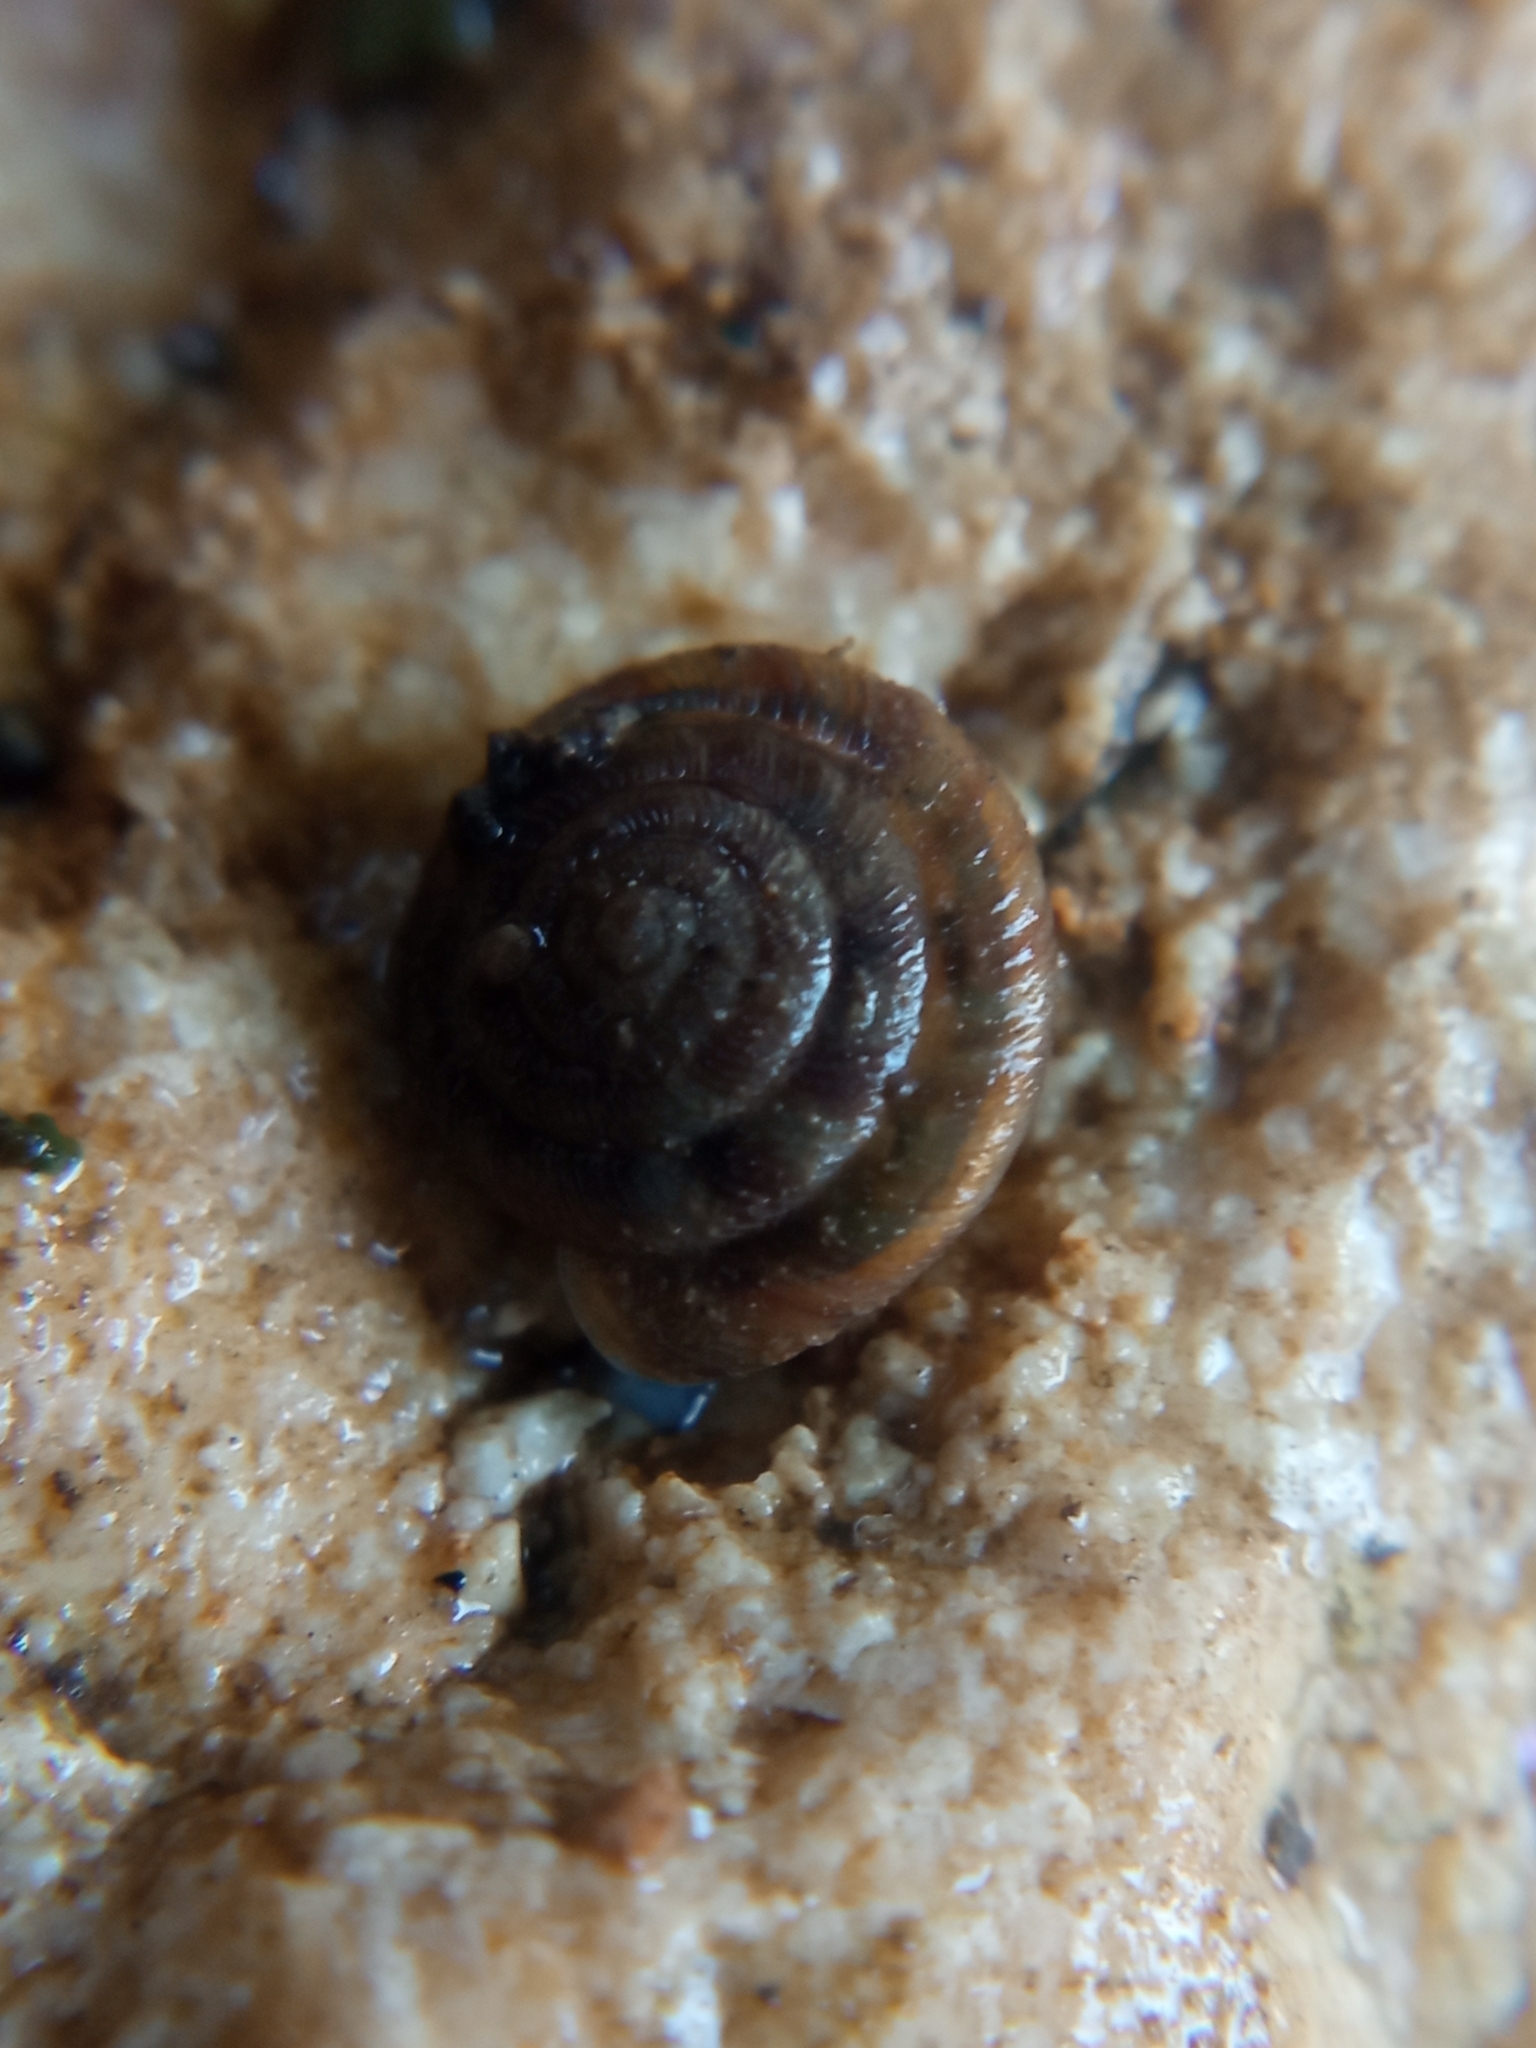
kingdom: Animalia
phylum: Mollusca
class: Gastropoda
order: Stylommatophora
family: Discidae
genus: Discus
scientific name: Discus rotundatus
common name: Rounded snail
